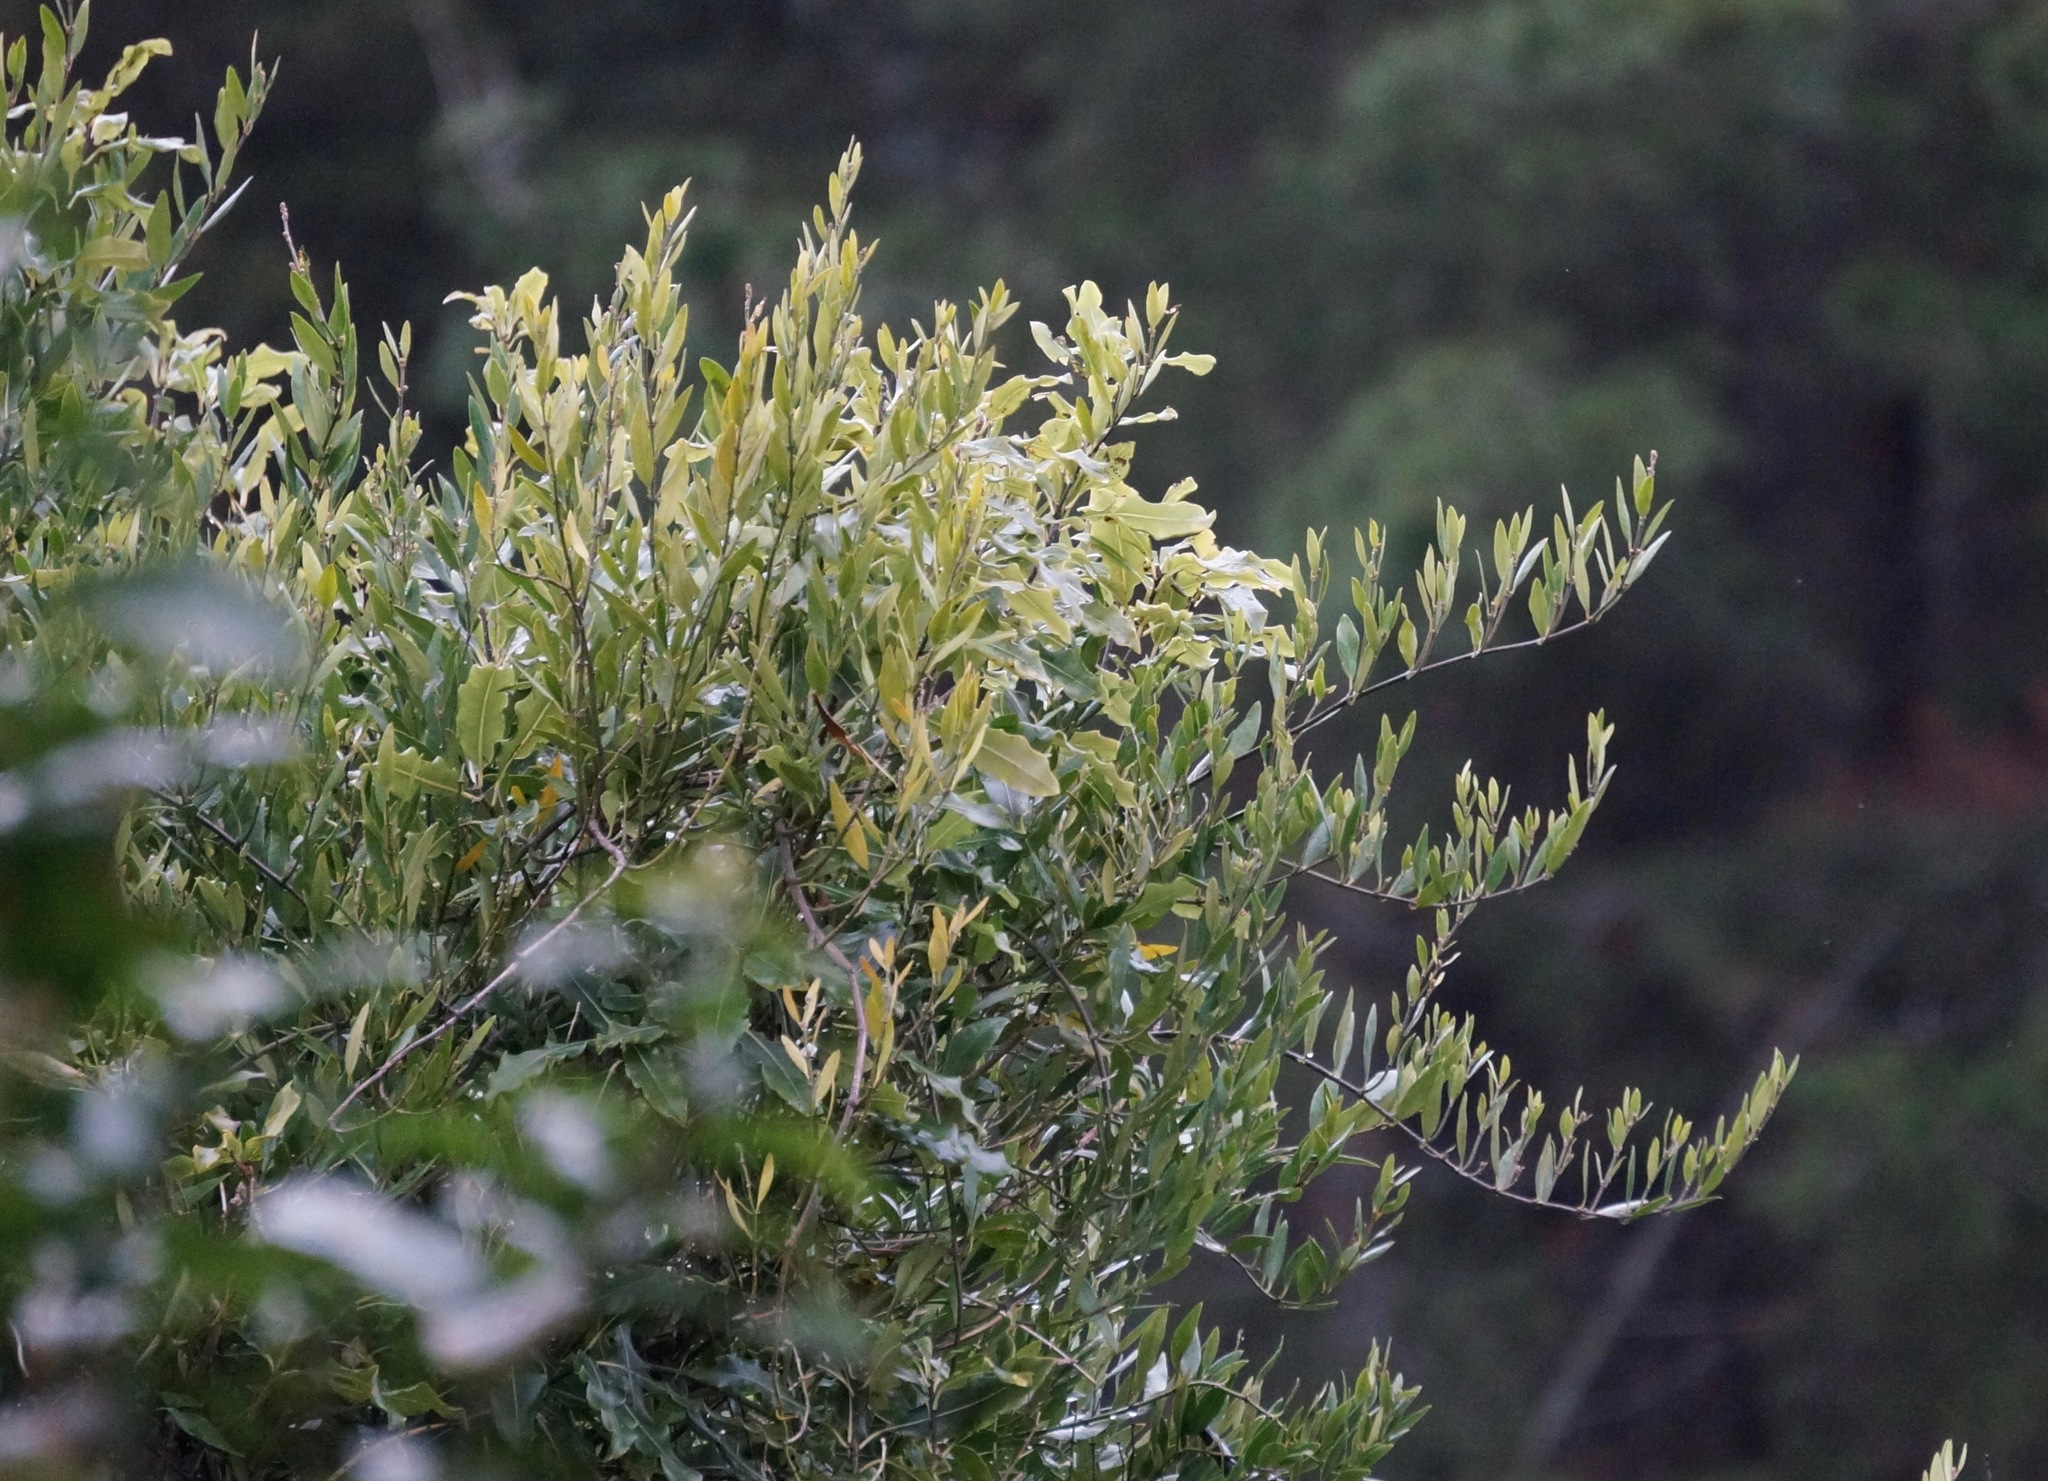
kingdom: Plantae
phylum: Tracheophyta
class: Magnoliopsida
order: Gentianales
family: Apocynaceae
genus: Parsonsia
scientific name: Parsonsia heterophylla
